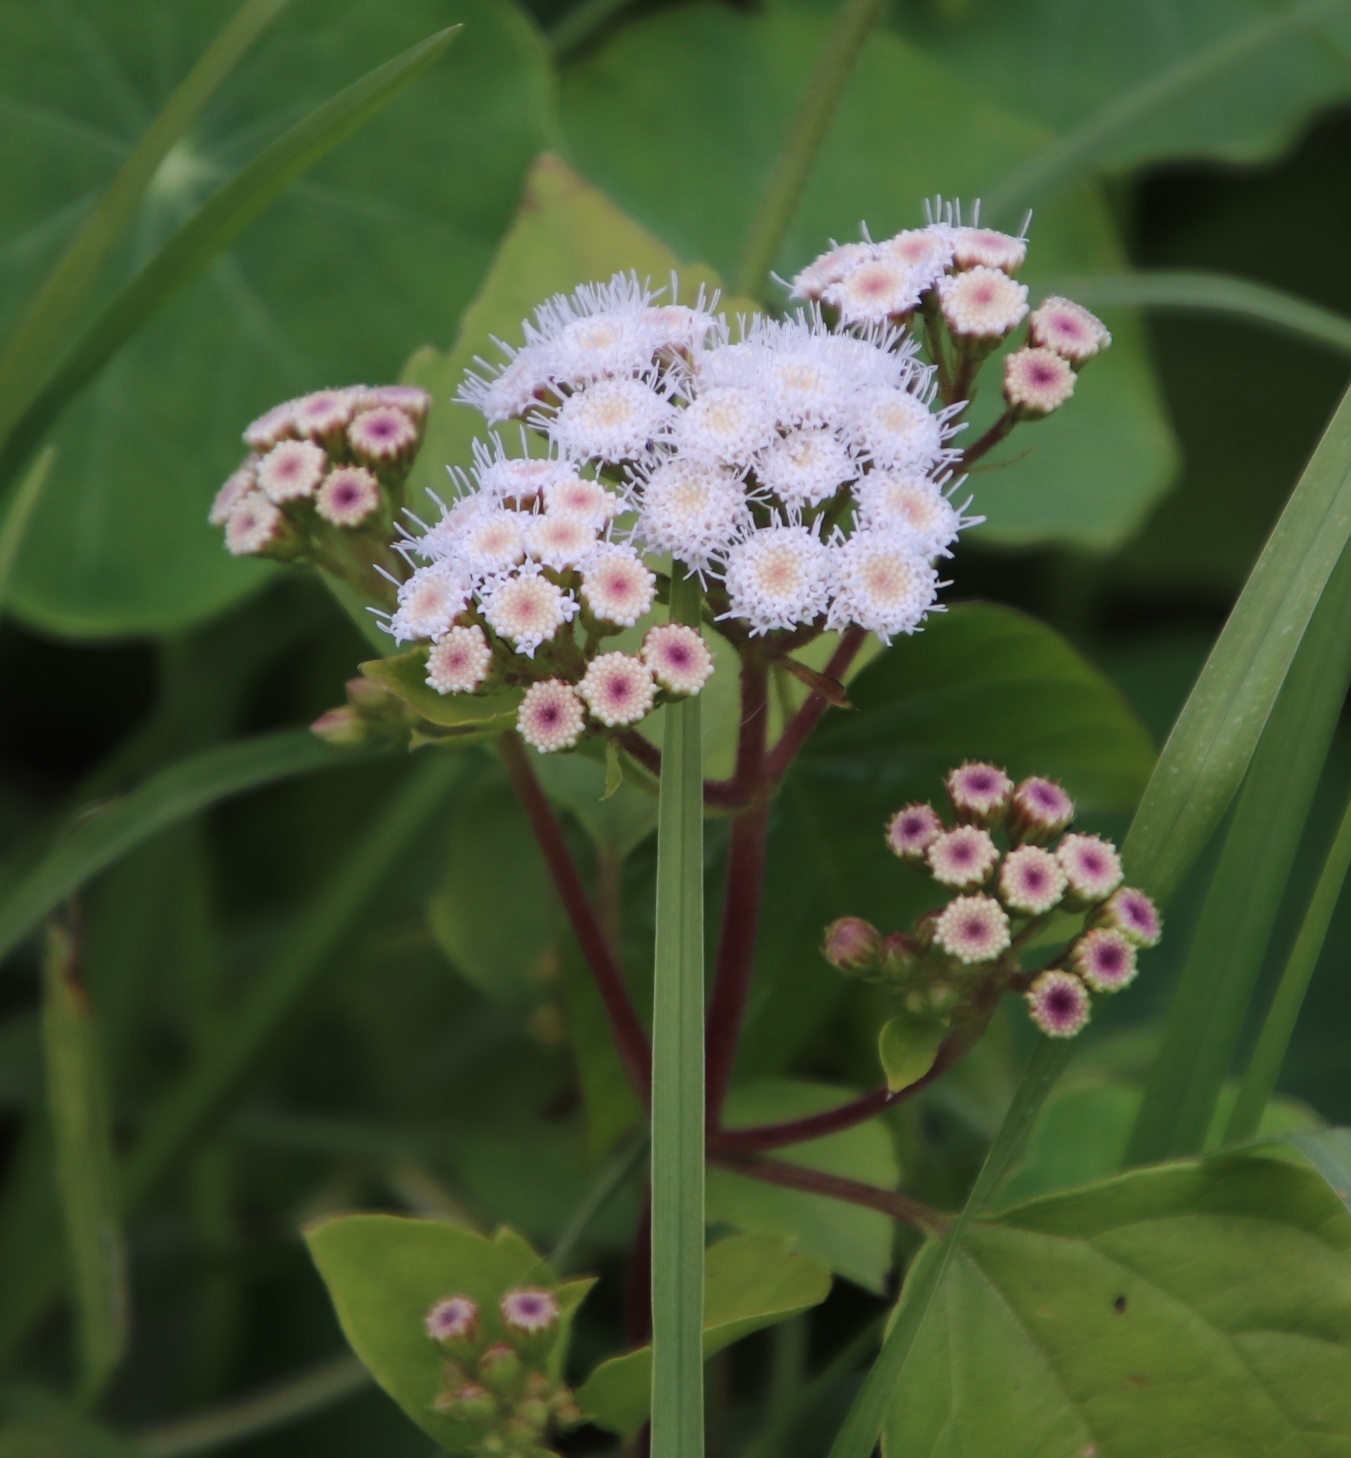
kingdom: Plantae
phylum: Tracheophyta
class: Magnoliopsida
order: Asterales
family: Asteraceae
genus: Ageratina
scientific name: Ageratina adenophora
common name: Sticky snakeroot
